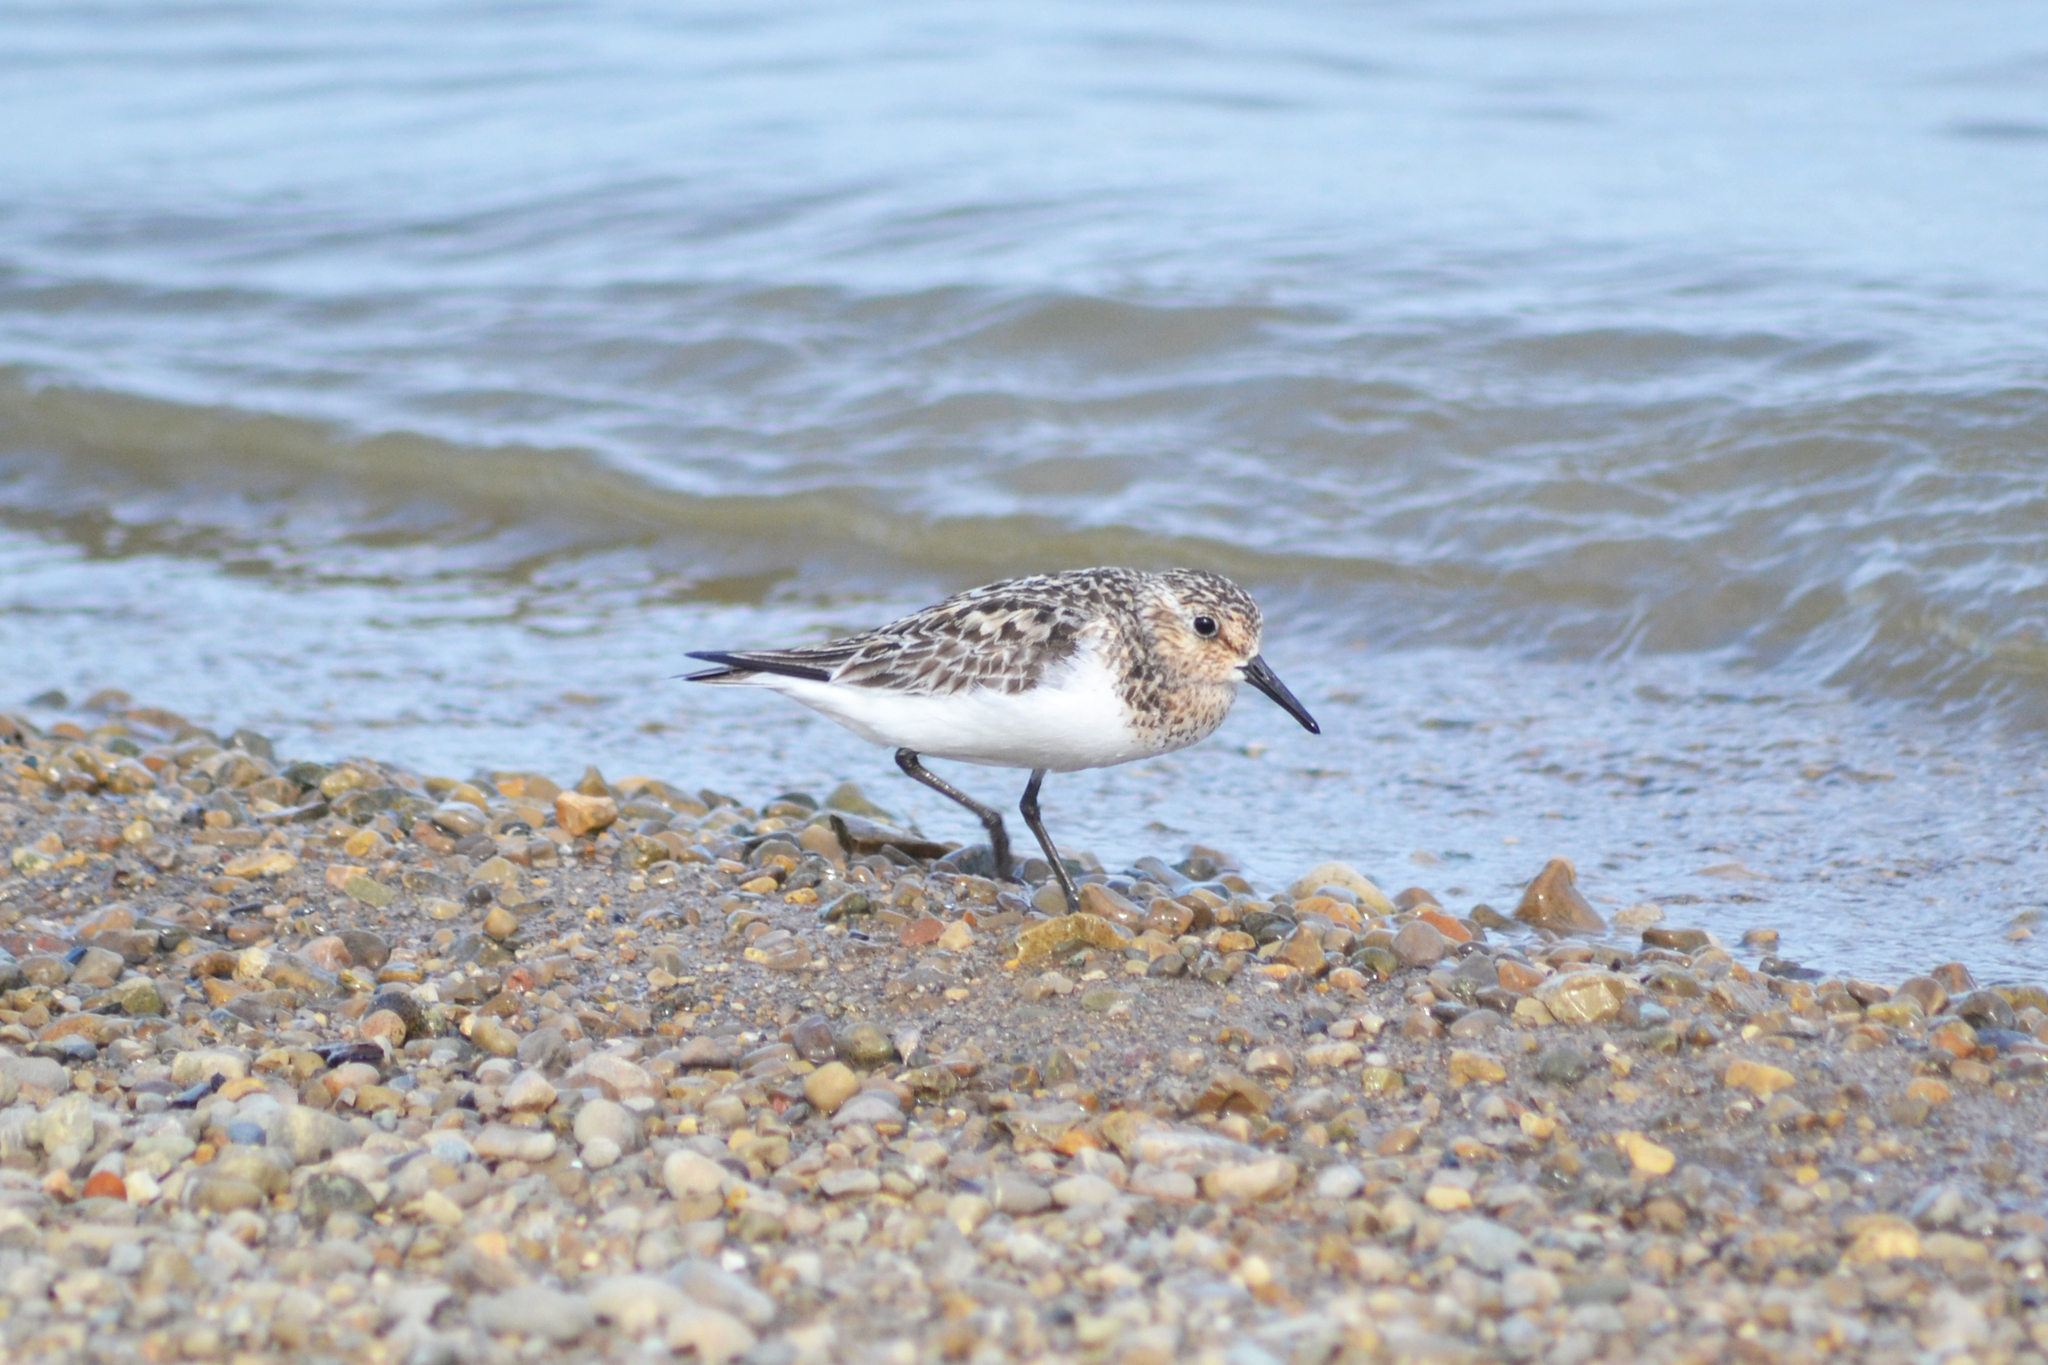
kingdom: Animalia
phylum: Chordata
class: Aves
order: Charadriiformes
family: Scolopacidae
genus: Calidris
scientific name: Calidris alba
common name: Sanderling
